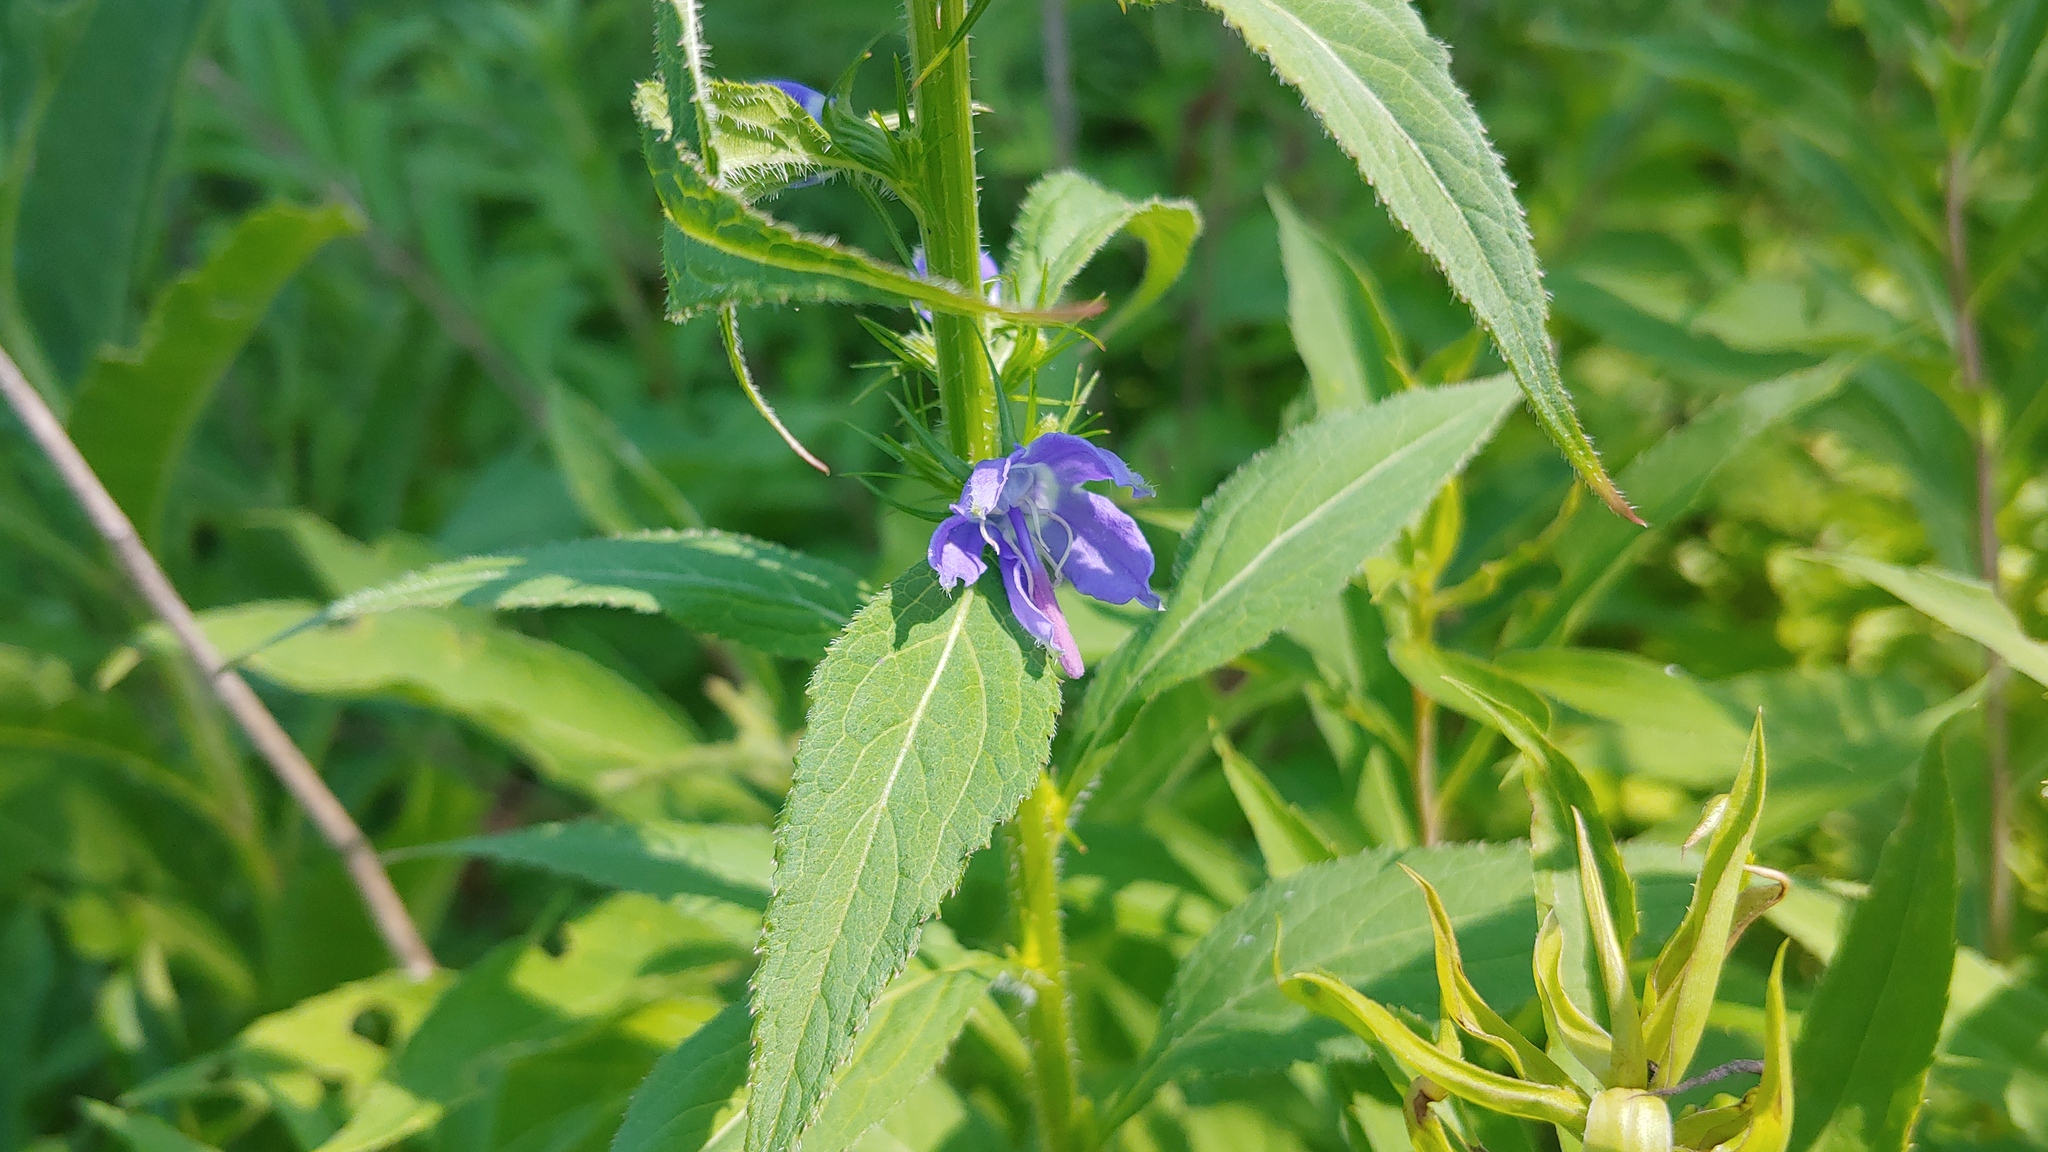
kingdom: Plantae
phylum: Tracheophyta
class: Magnoliopsida
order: Asterales
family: Campanulaceae
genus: Campanulastrum
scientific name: Campanulastrum americanum
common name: American bellflower
